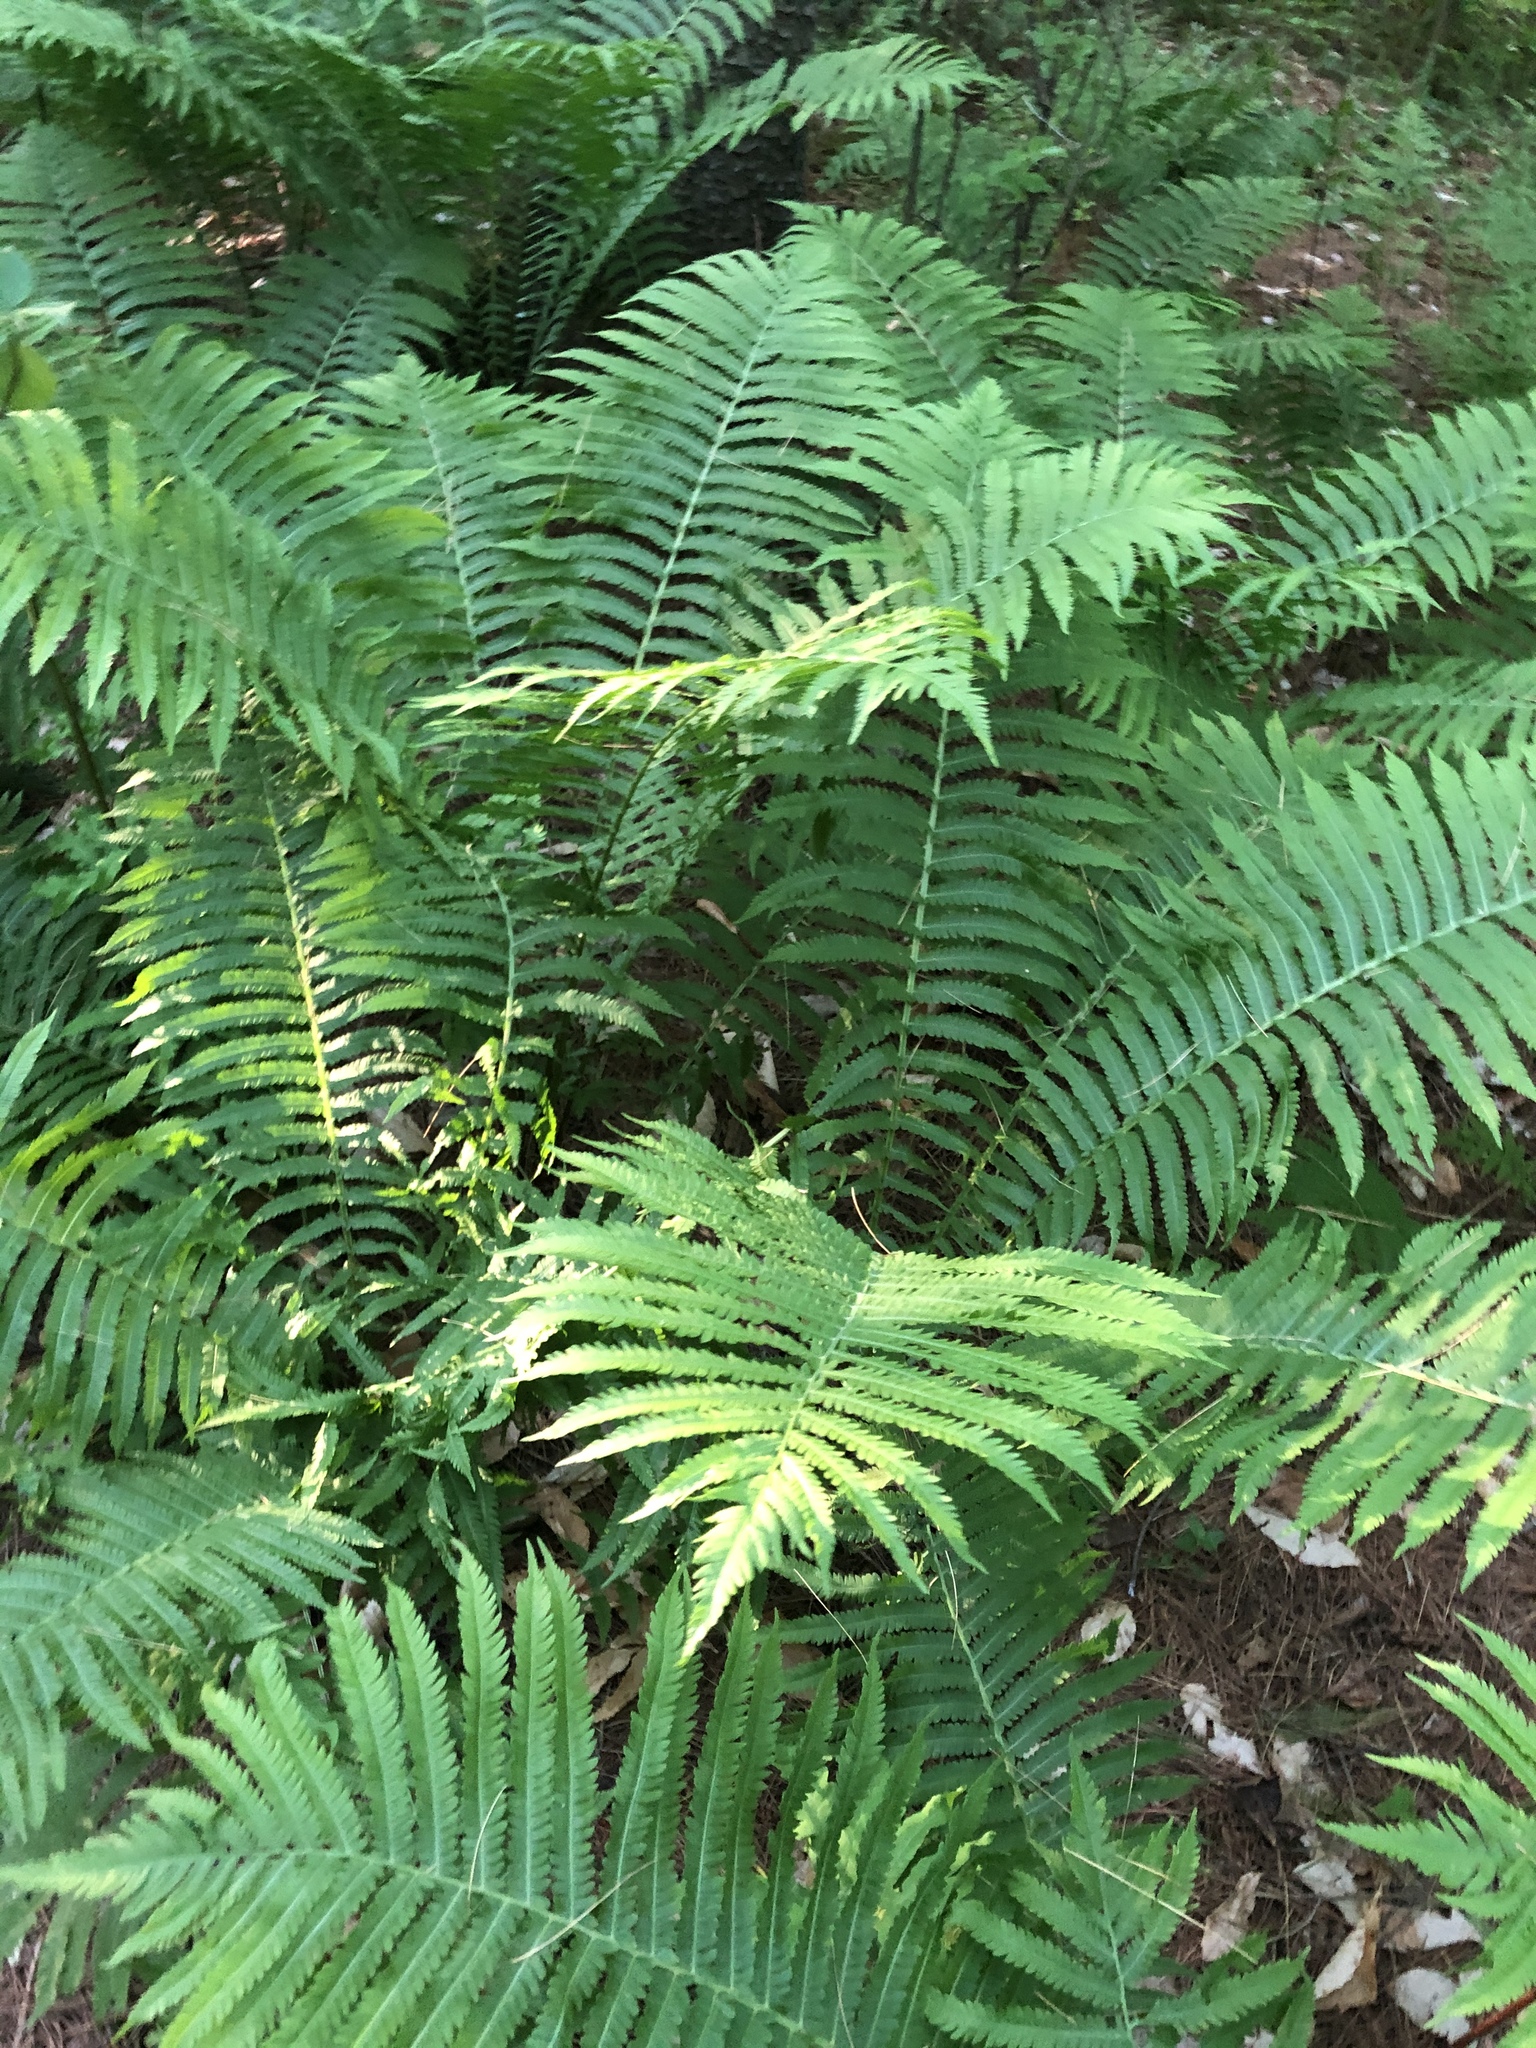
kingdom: Plantae
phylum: Tracheophyta
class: Polypodiopsida
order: Polypodiales
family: Onocleaceae
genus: Matteuccia
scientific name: Matteuccia struthiopteris
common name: Ostrich fern
